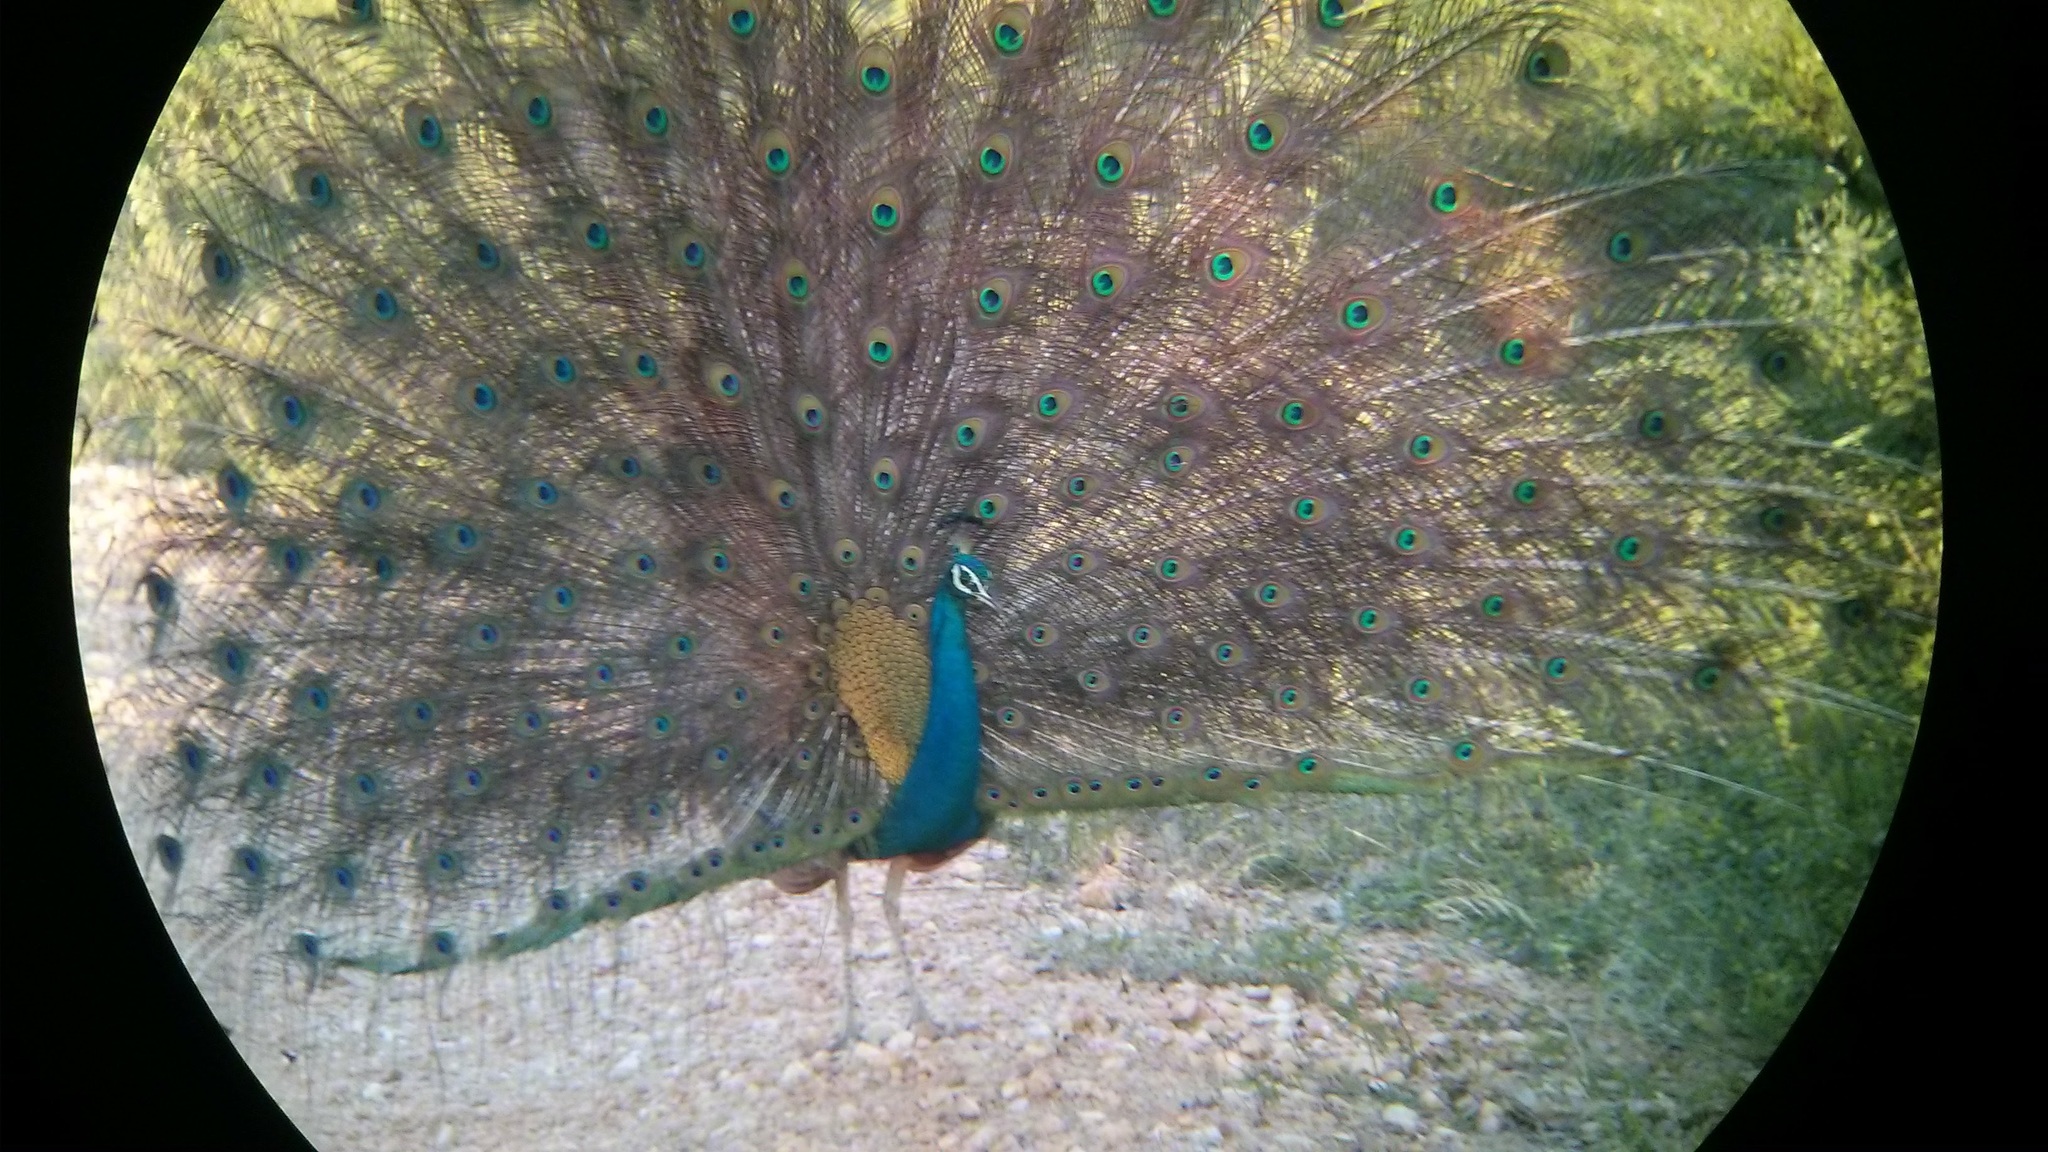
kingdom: Animalia
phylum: Chordata
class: Aves
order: Galliformes
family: Phasianidae
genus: Pavo
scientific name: Pavo cristatus
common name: Indian peafowl
